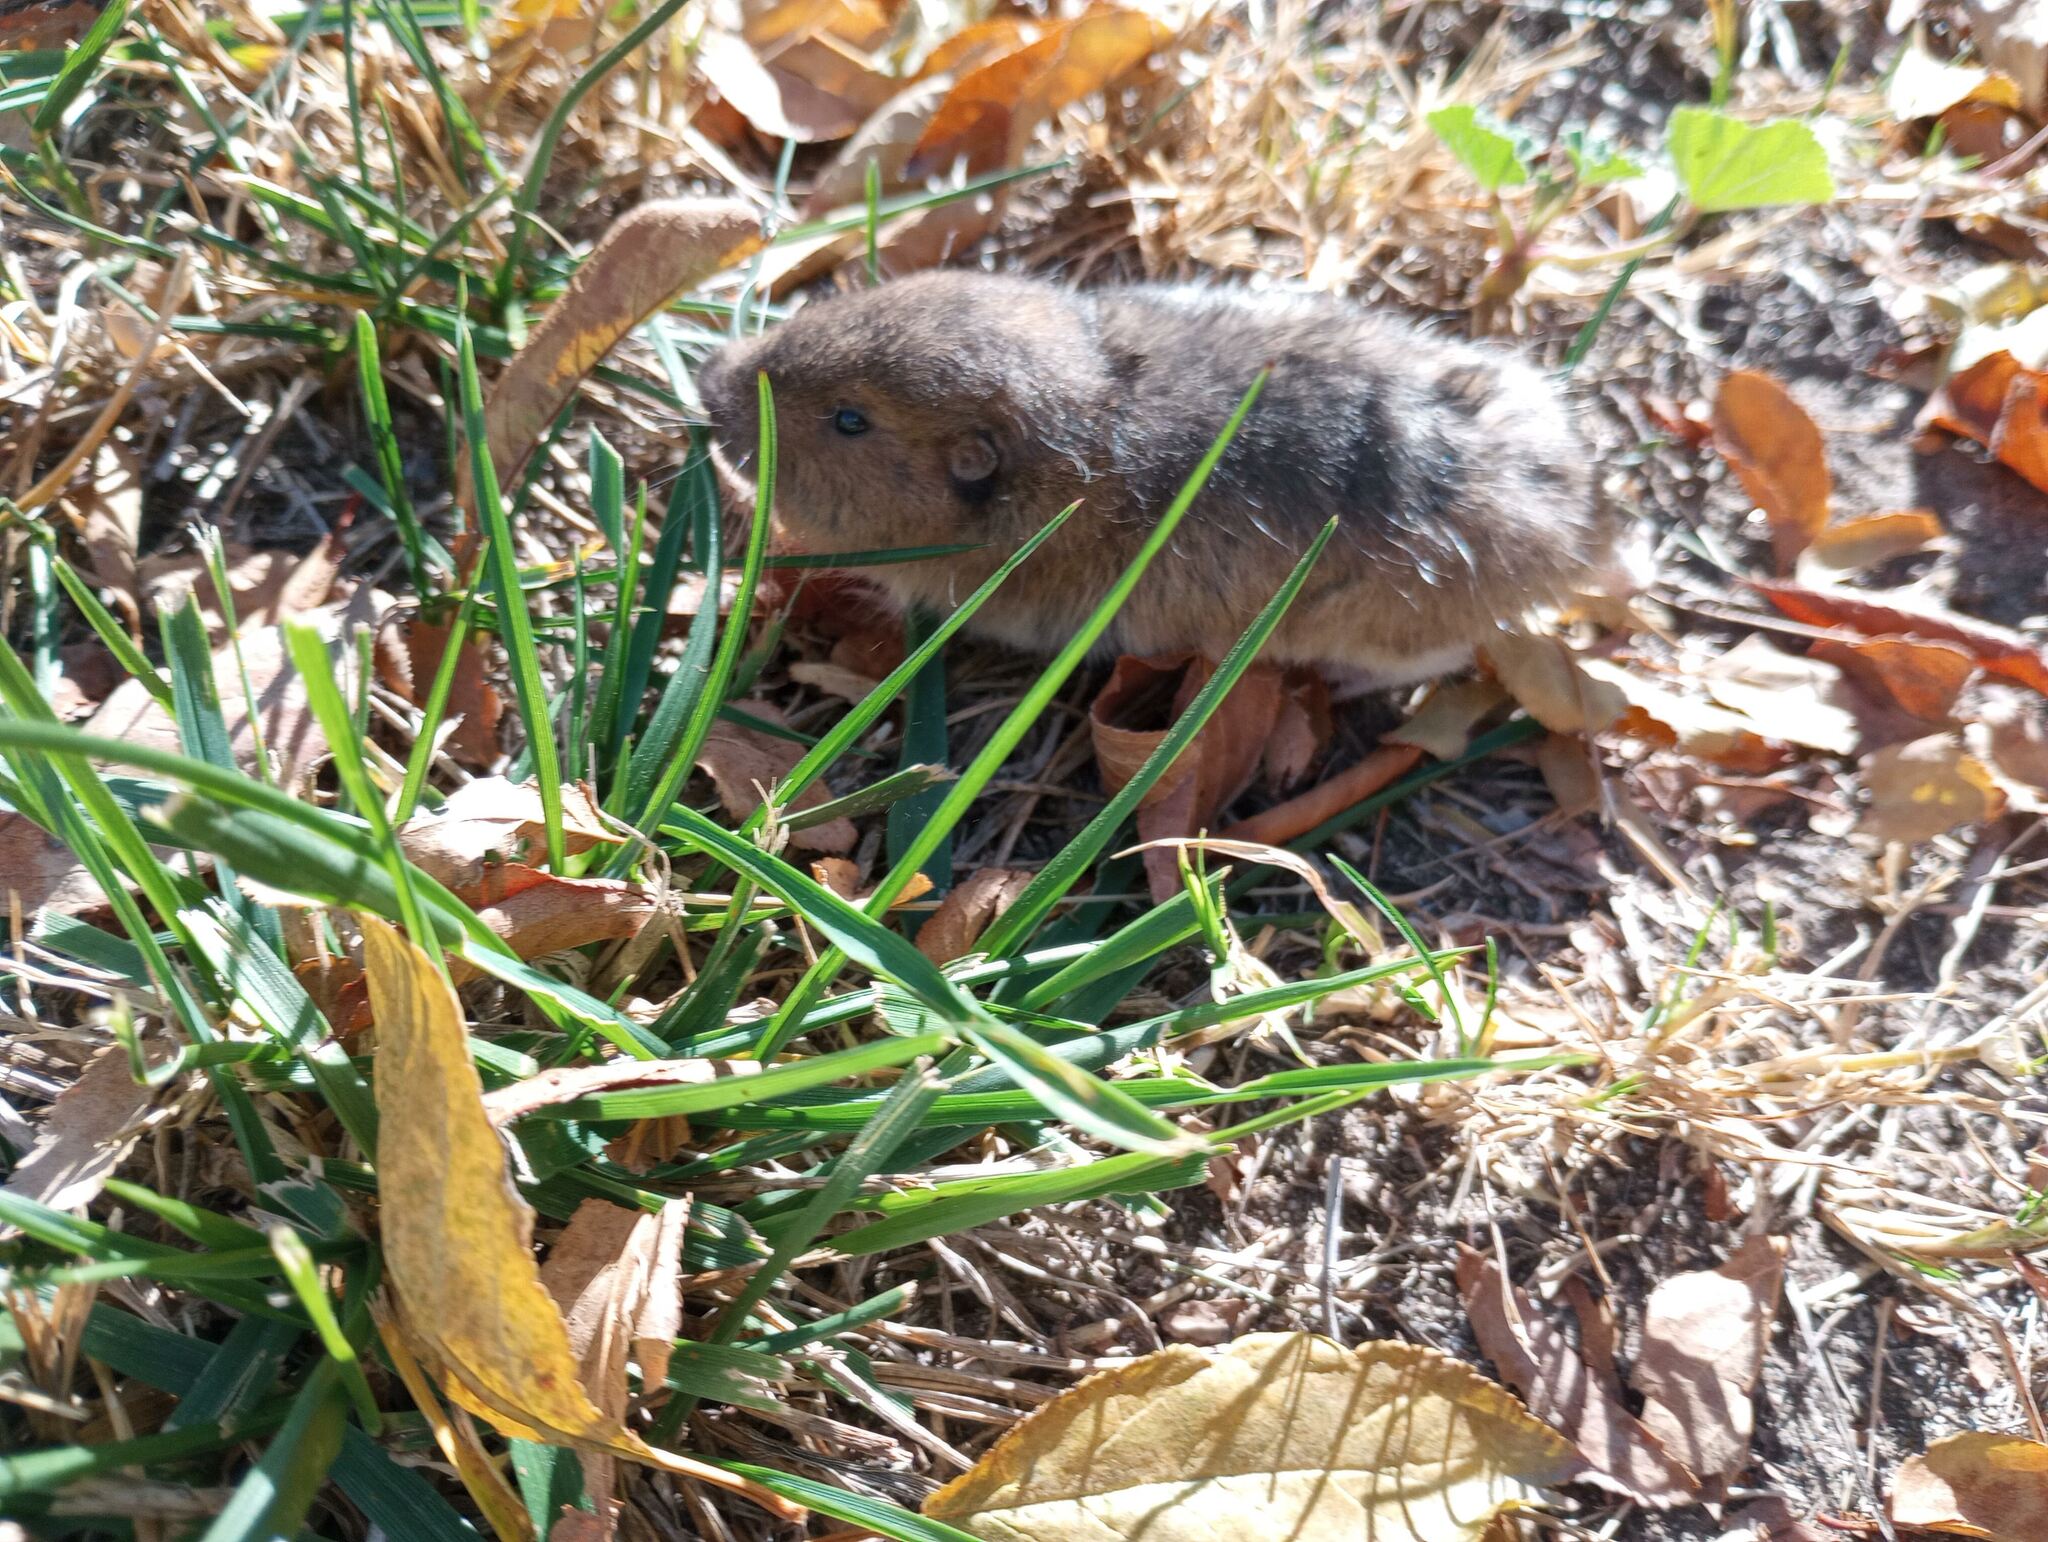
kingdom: Animalia
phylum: Chordata
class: Mammalia
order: Rodentia
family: Geomyidae
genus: Thomomys
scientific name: Thomomys bottae
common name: Botta's pocket gopher
